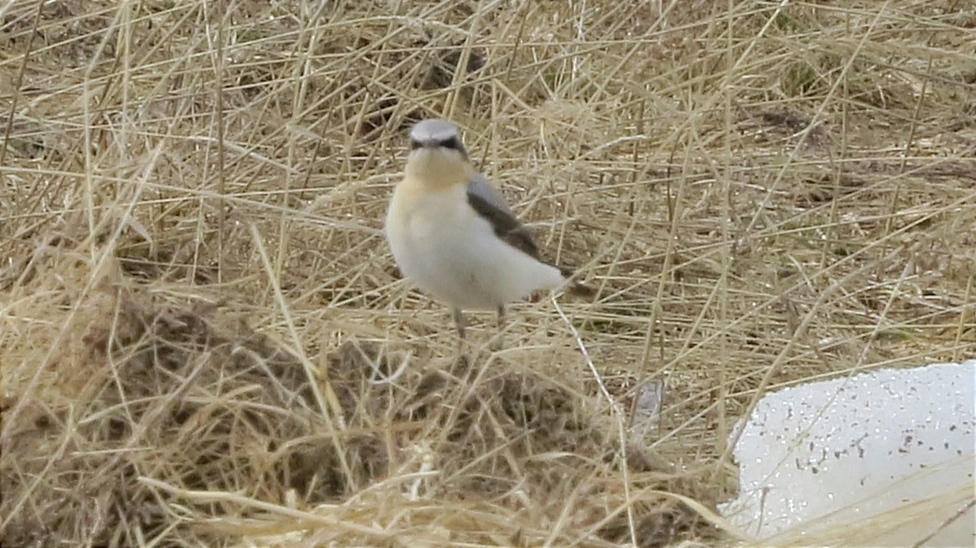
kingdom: Animalia
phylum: Chordata
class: Aves
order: Passeriformes
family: Muscicapidae
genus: Oenanthe
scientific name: Oenanthe oenanthe
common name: Northern wheatear
